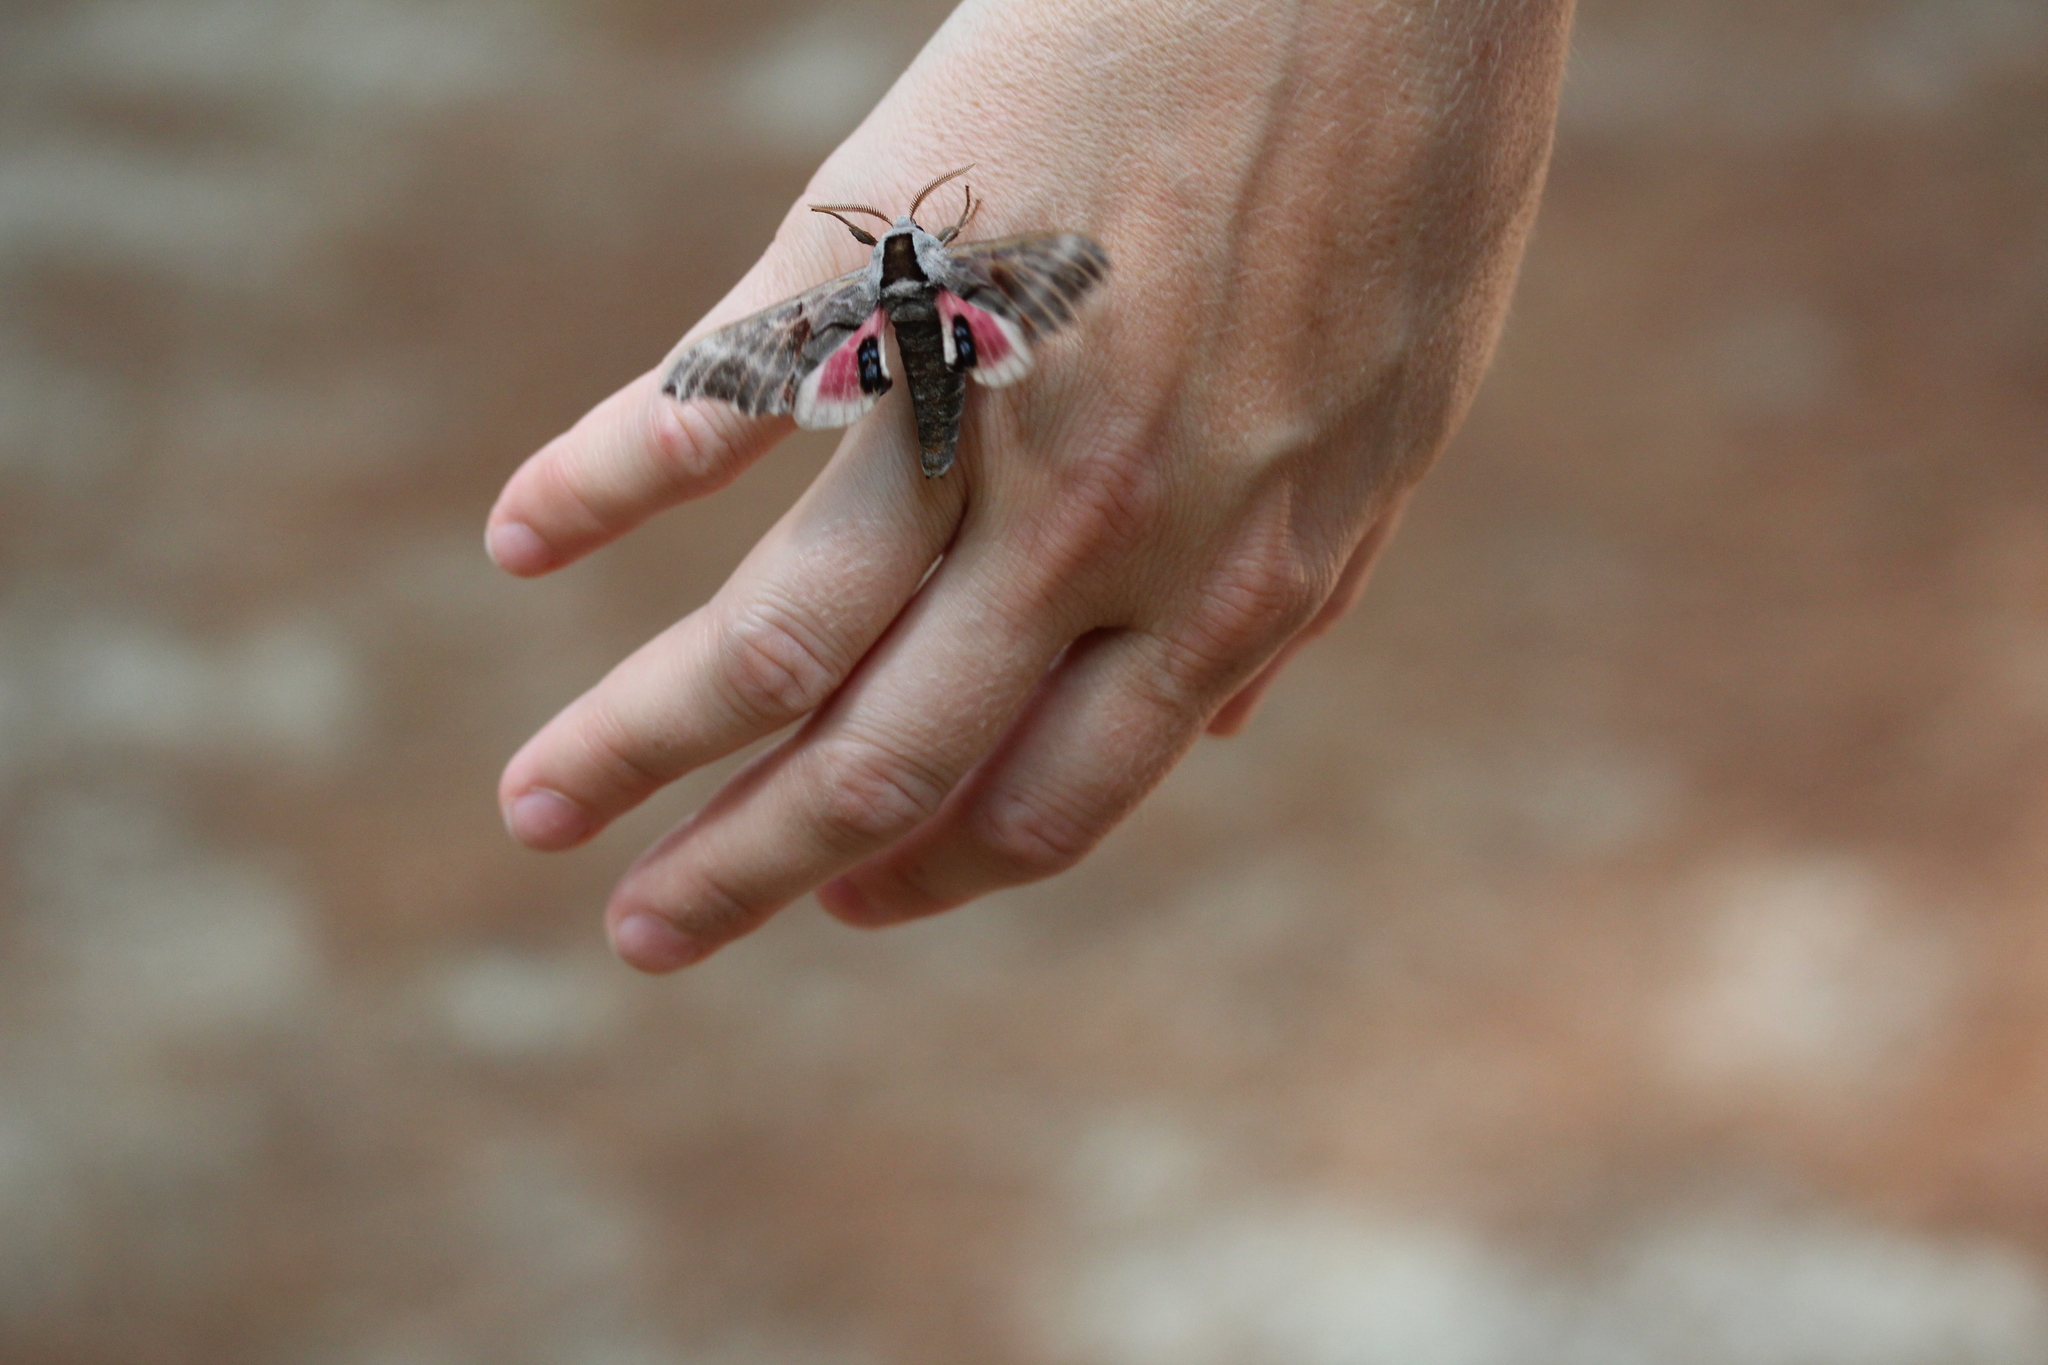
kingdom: Animalia
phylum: Arthropoda
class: Insecta
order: Lepidoptera
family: Sphingidae
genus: Smerinthus
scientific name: Smerinthus jamaicensis
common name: Twin spotted sphinx
